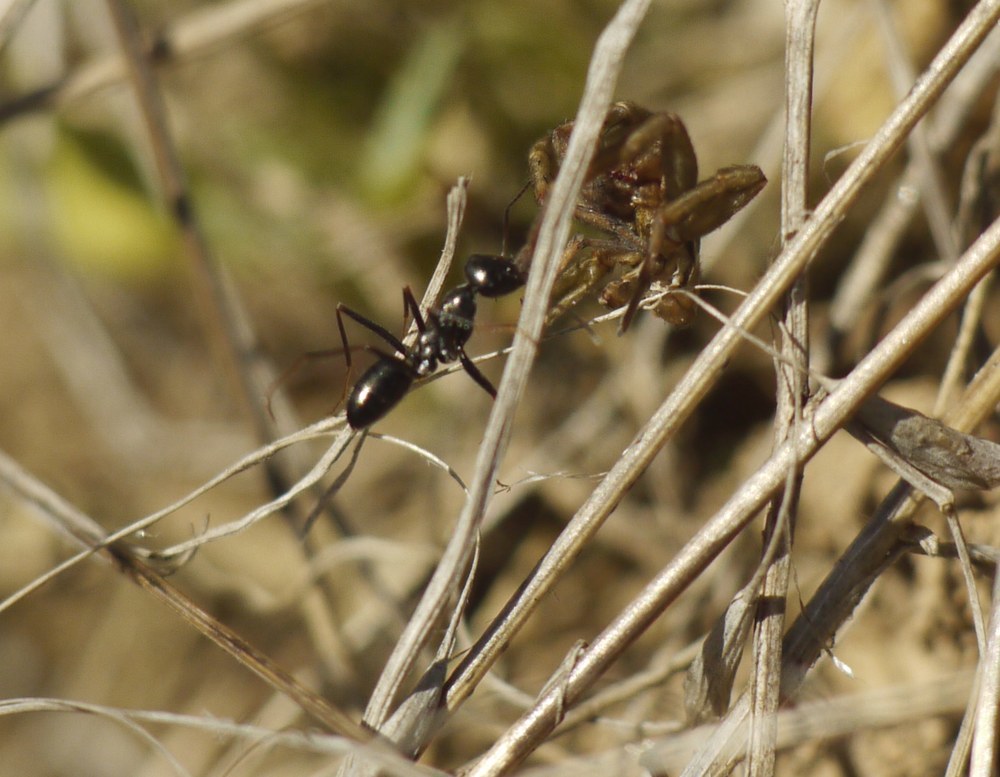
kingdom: Animalia
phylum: Arthropoda
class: Insecta
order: Hymenoptera
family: Formicidae
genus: Cataglyphis
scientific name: Cataglyphis aenescens
